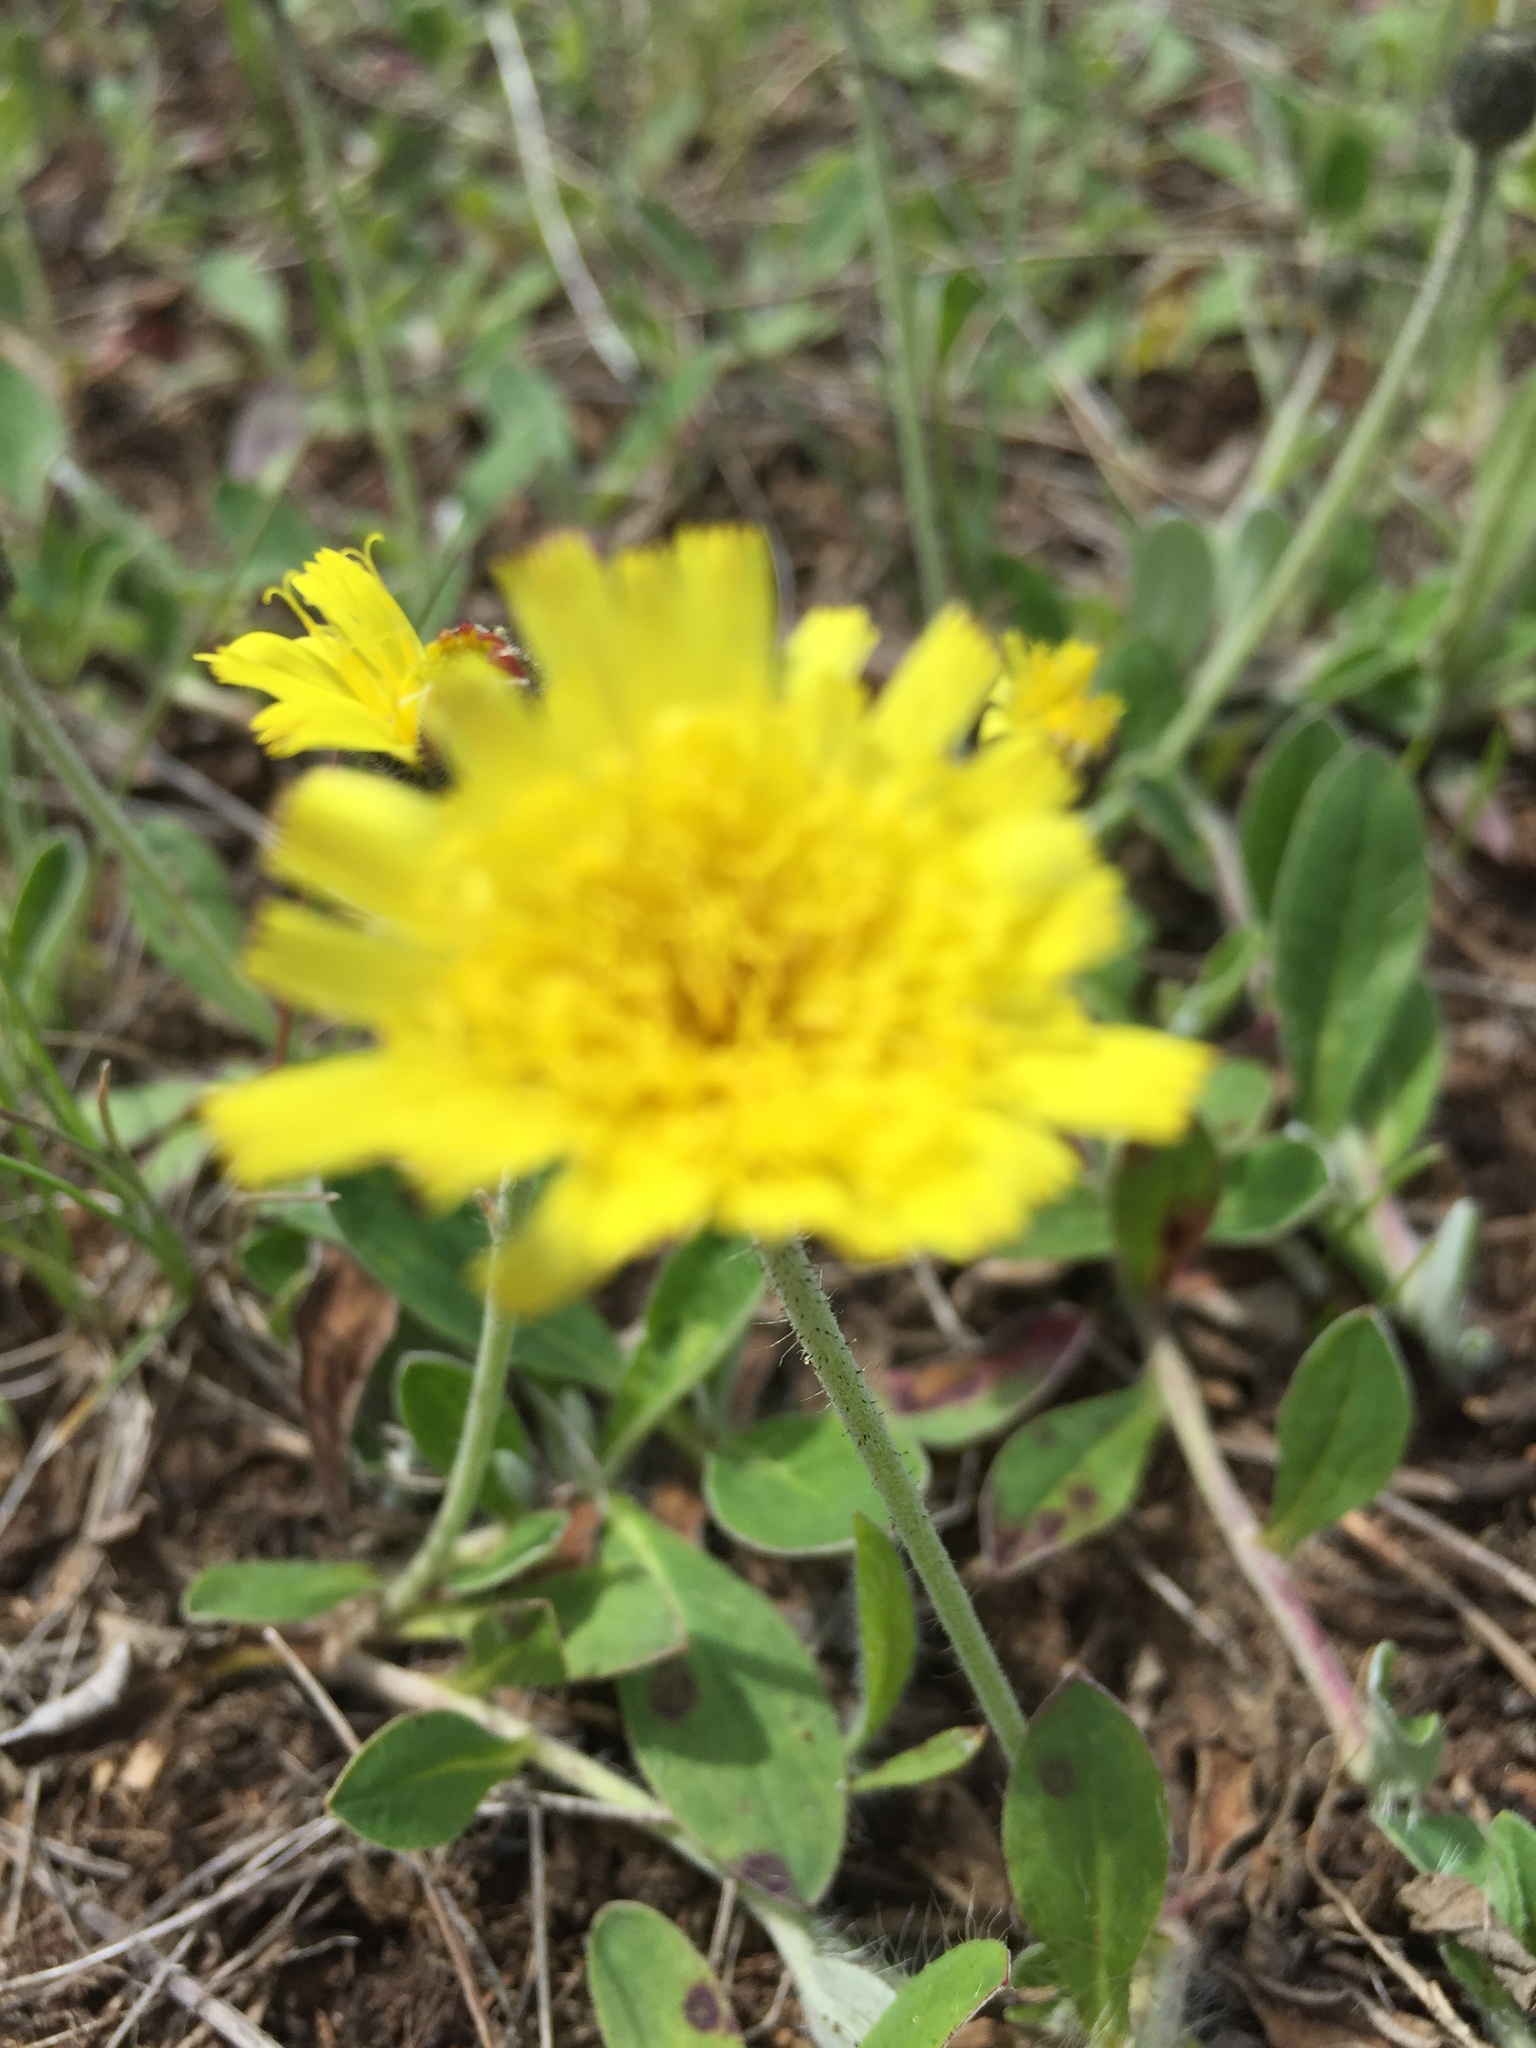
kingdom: Plantae
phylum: Tracheophyta
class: Magnoliopsida
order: Asterales
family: Asteraceae
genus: Pilosella
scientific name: Pilosella officinarum
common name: Mouse-ear hawkweed
